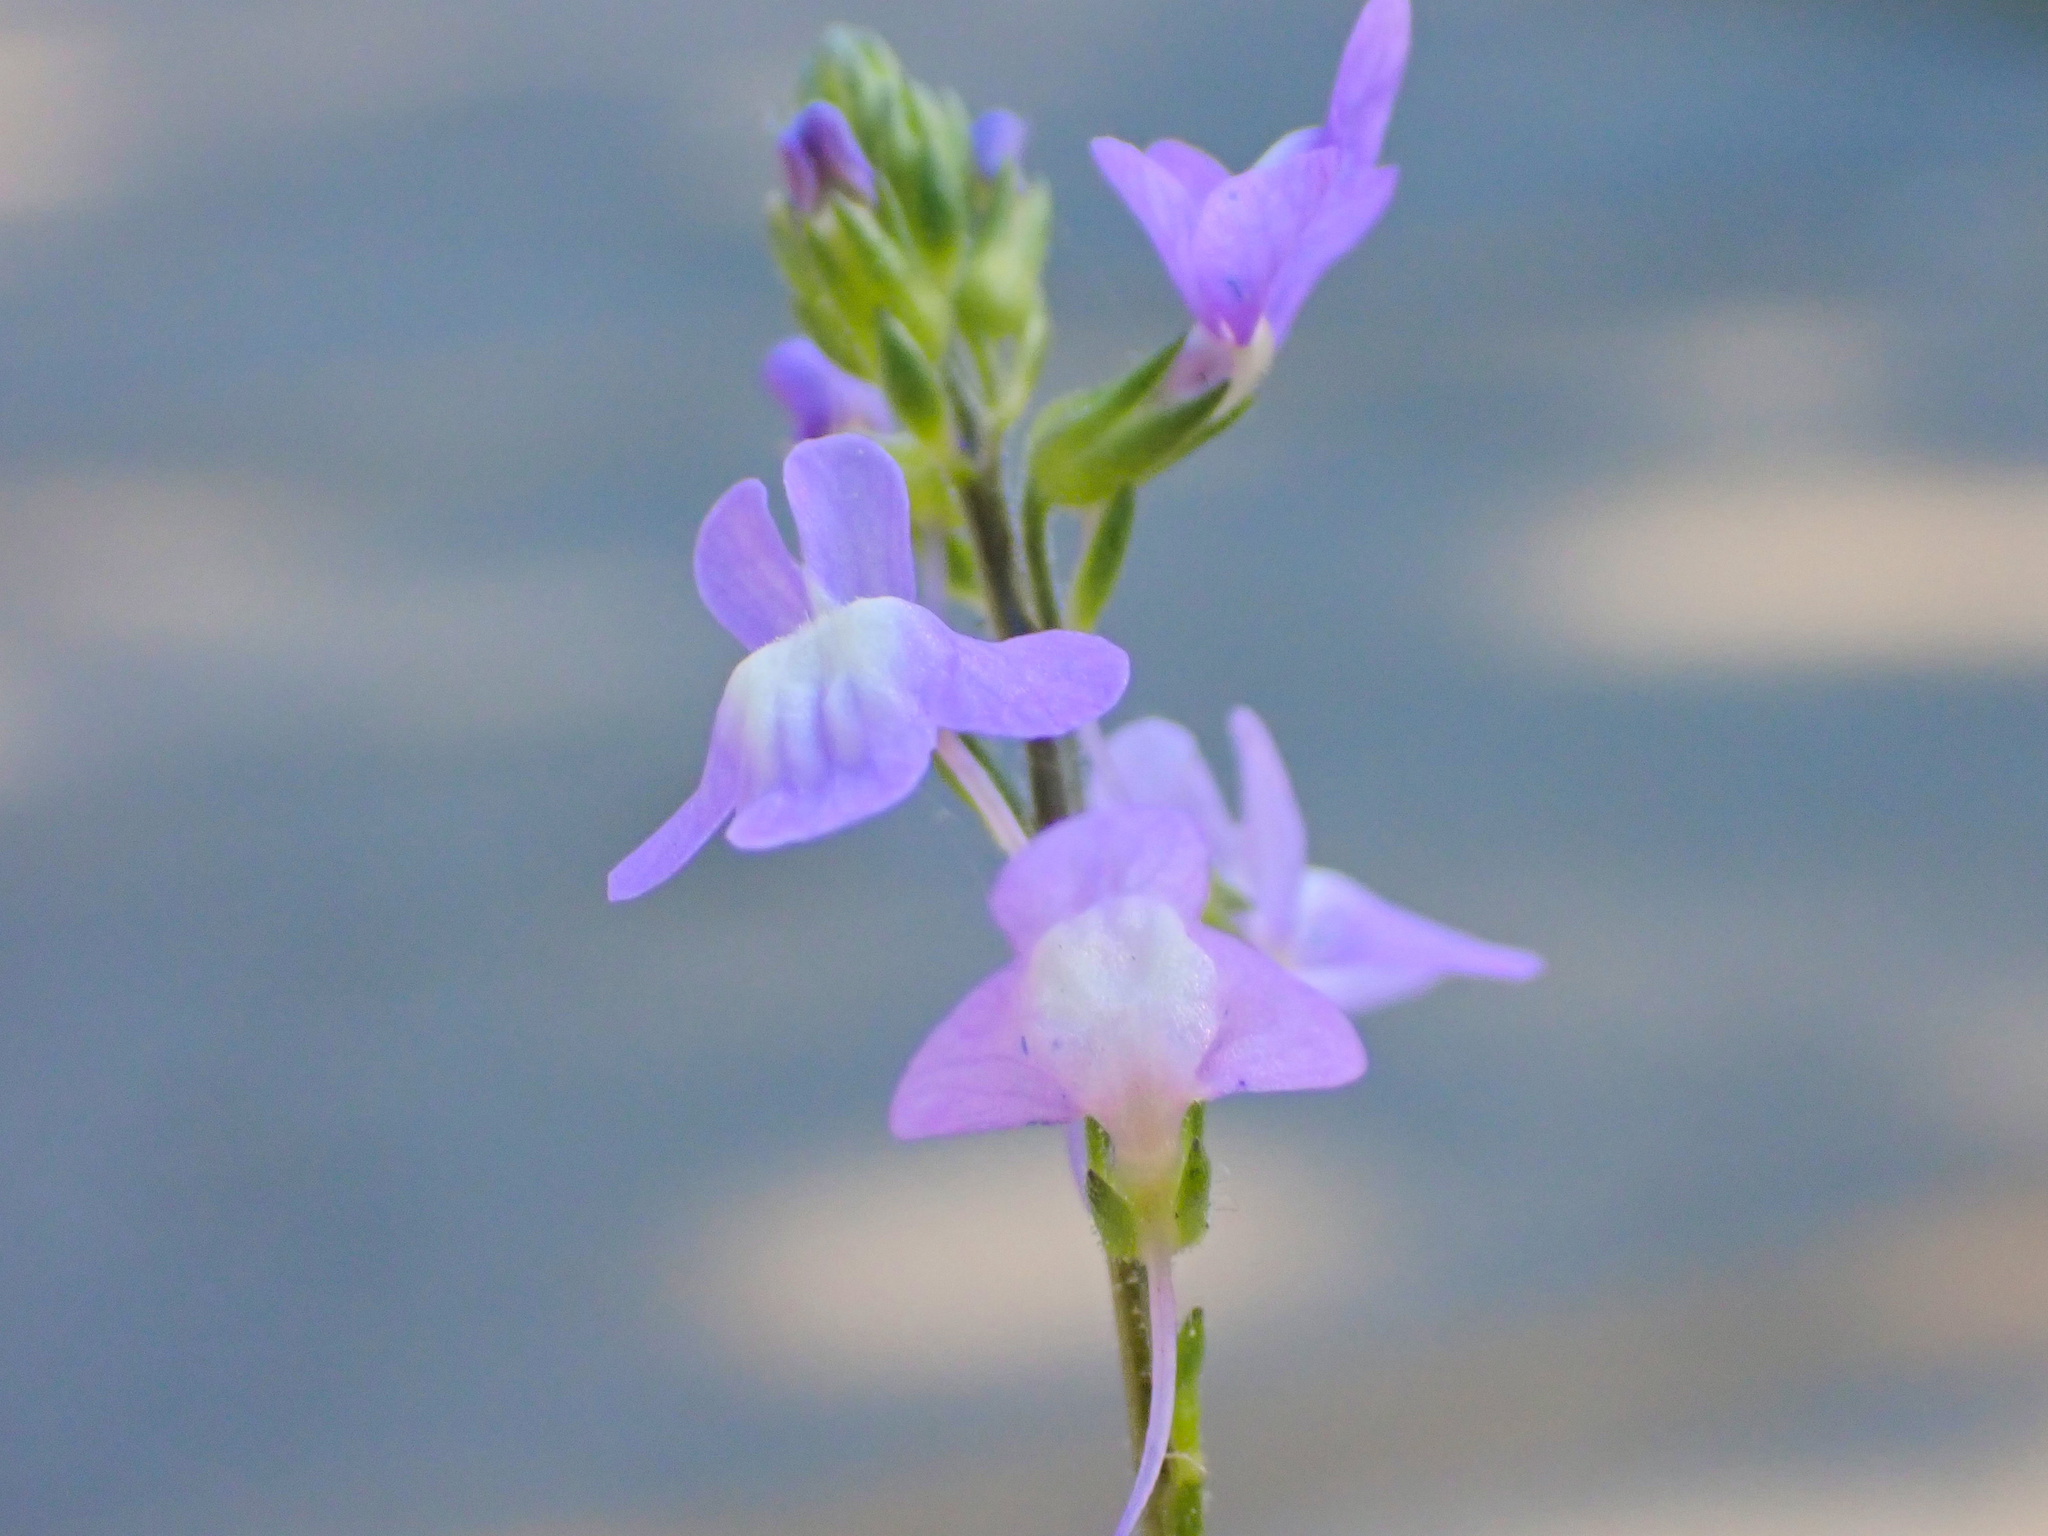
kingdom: Plantae
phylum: Tracheophyta
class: Magnoliopsida
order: Lamiales
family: Plantaginaceae
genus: Nuttallanthus
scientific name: Nuttallanthus canadensis
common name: Blue toadflax
